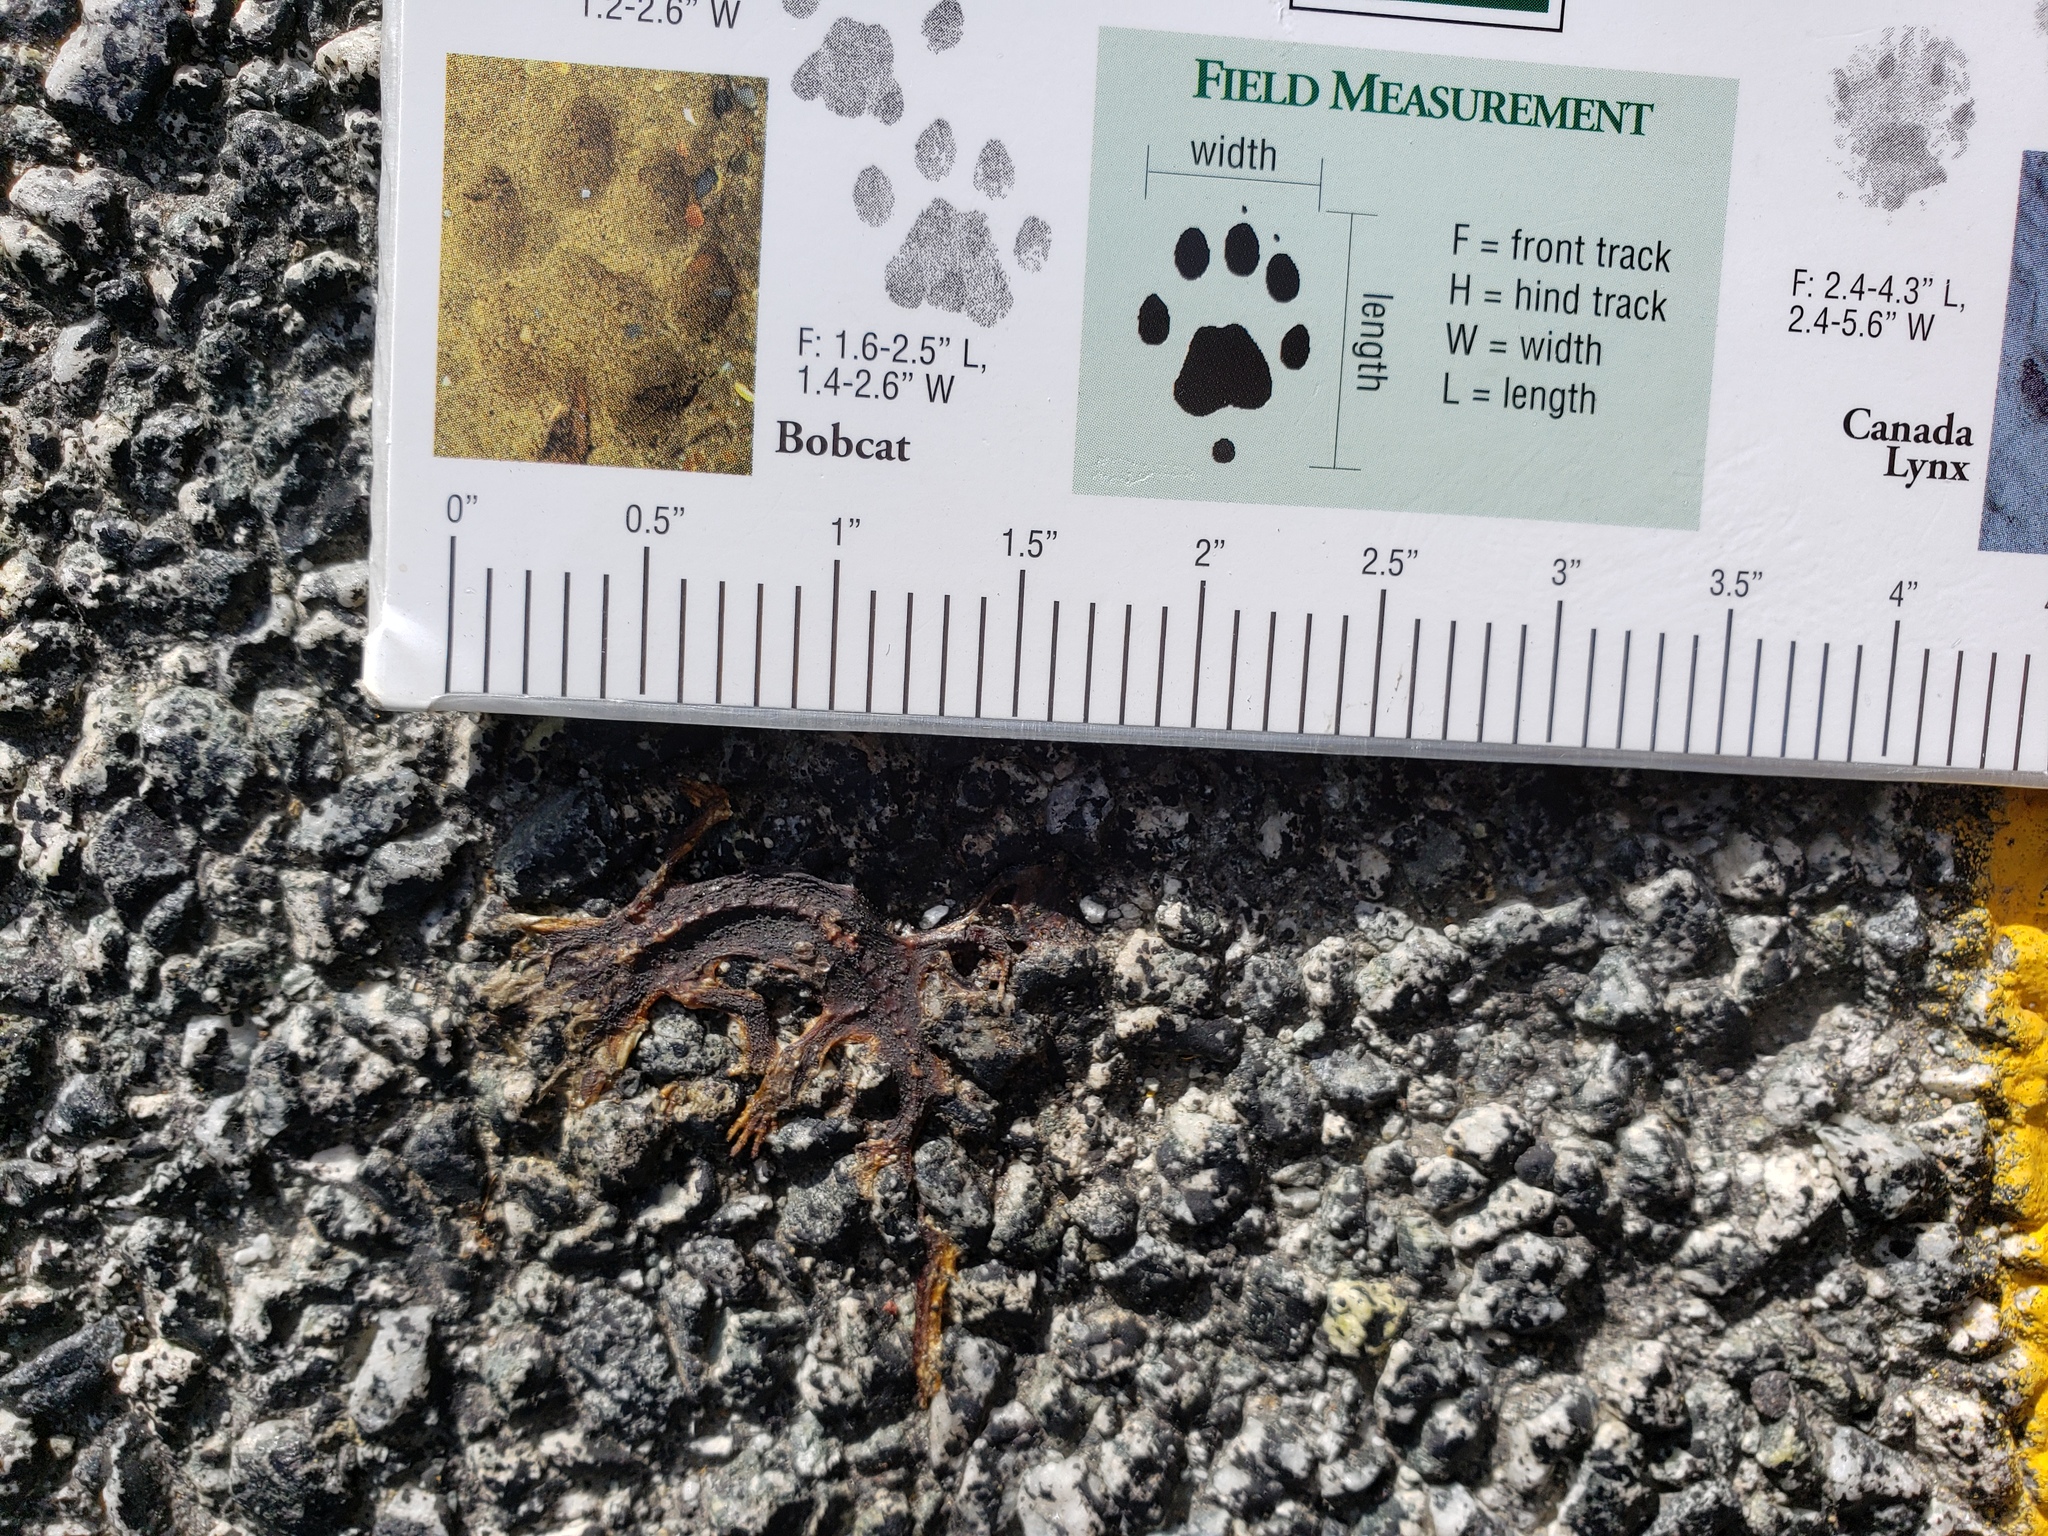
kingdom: Animalia
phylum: Chordata
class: Amphibia
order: Caudata
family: Salamandridae
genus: Taricha
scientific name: Taricha
